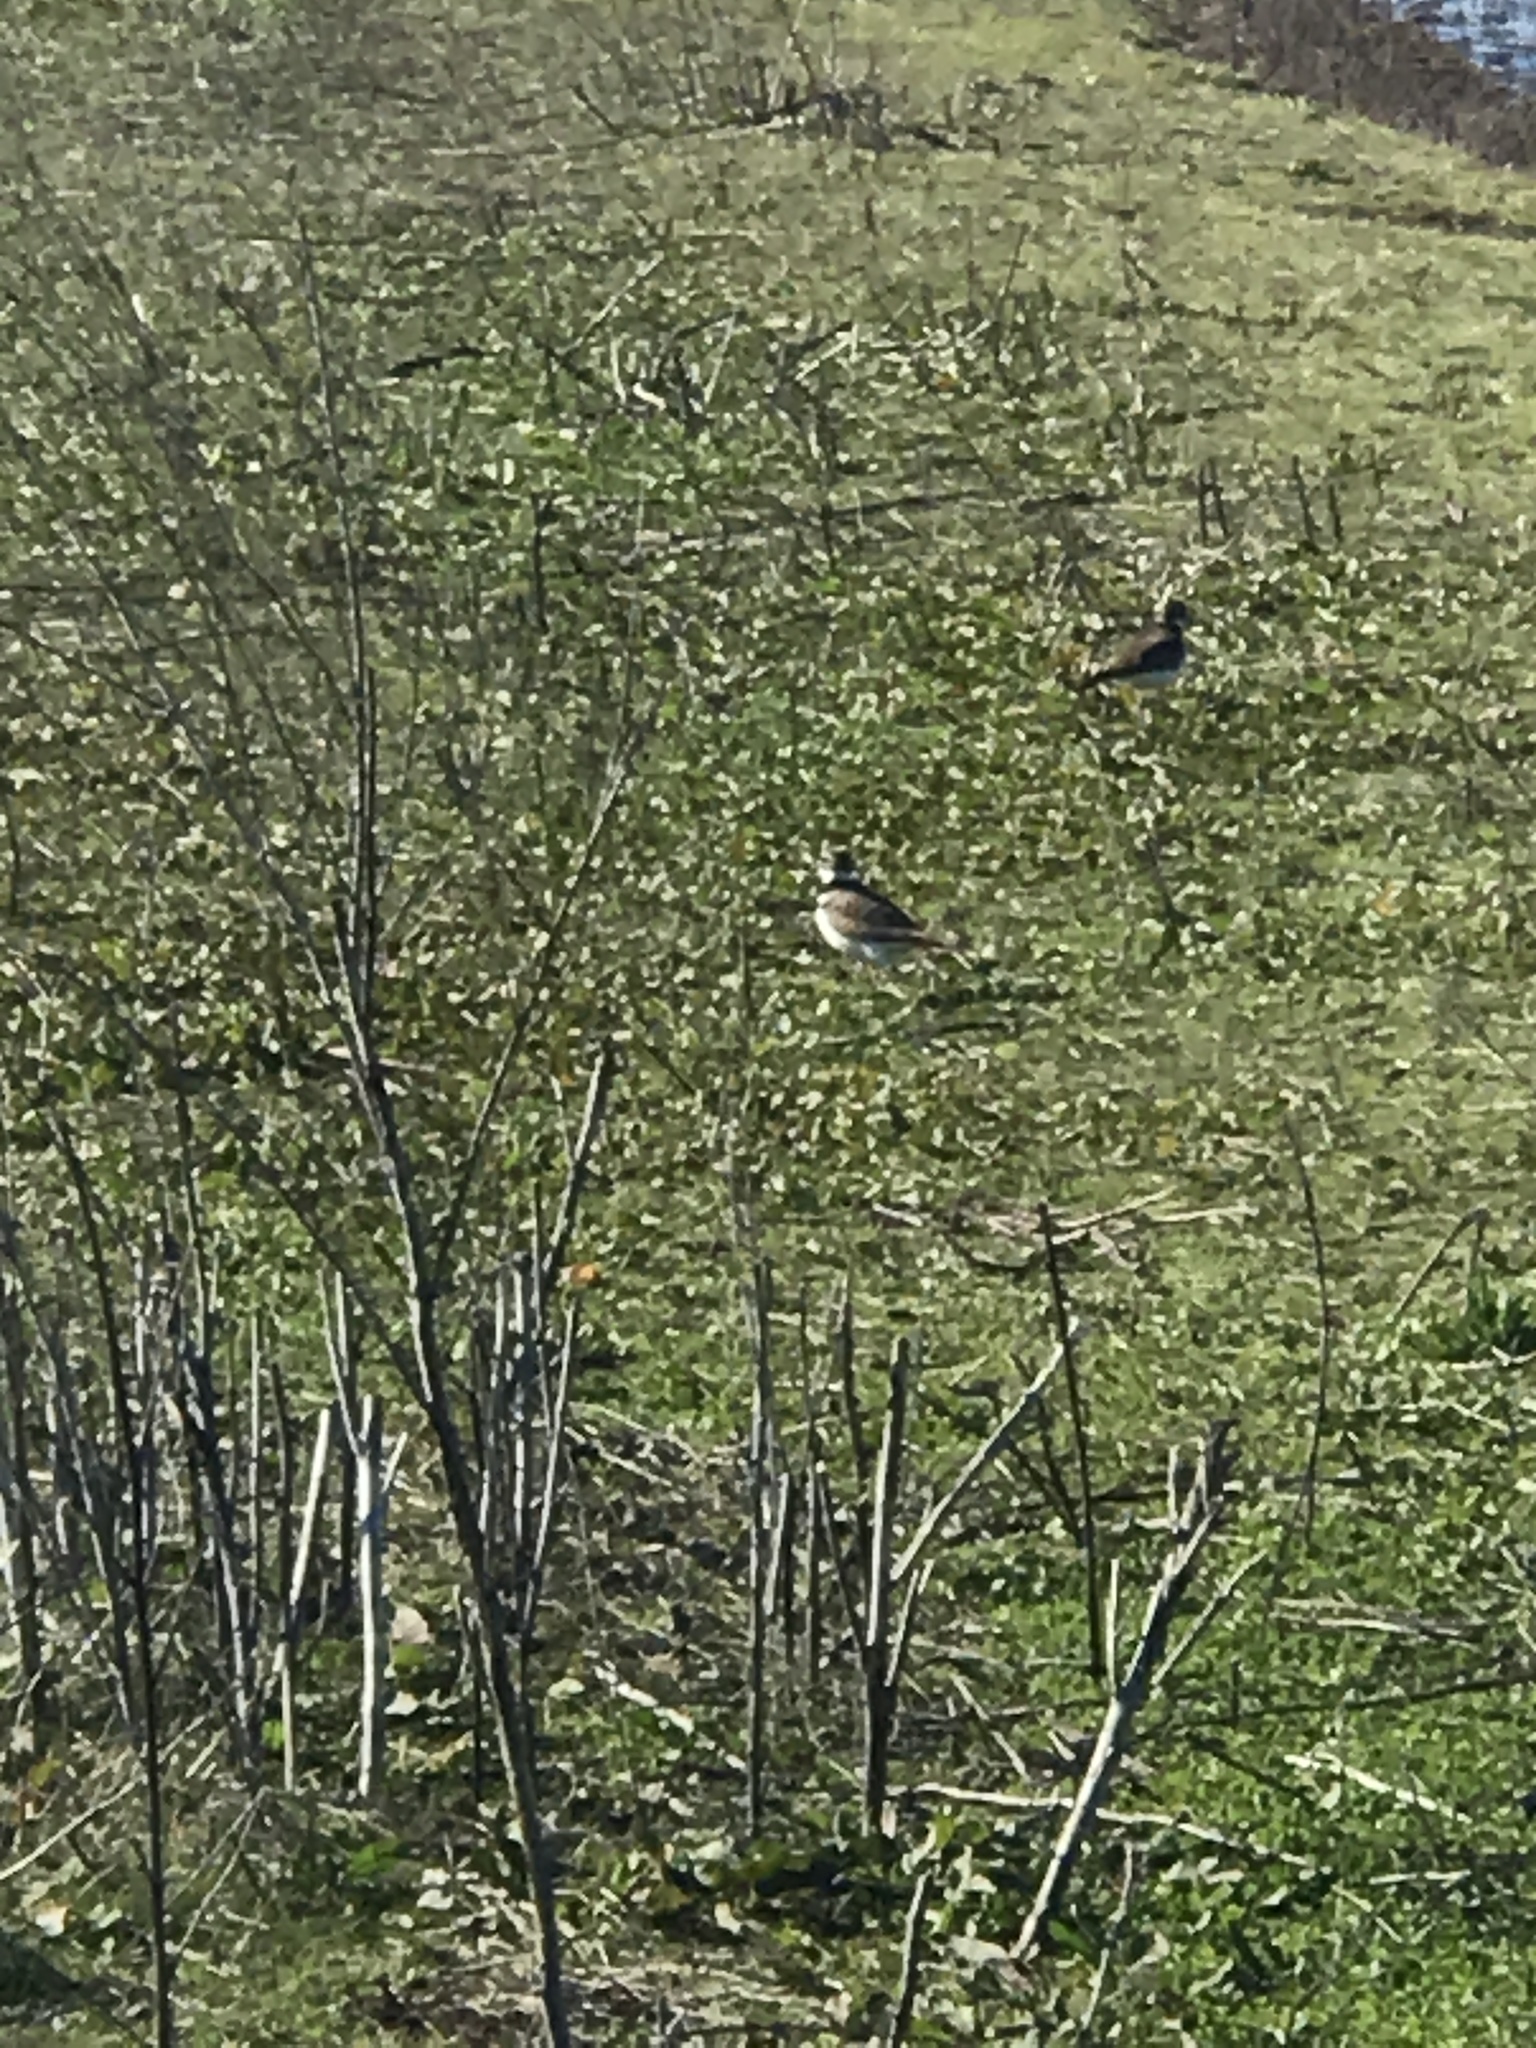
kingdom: Animalia
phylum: Chordata
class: Aves
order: Charadriiformes
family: Charadriidae
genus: Charadrius
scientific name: Charadrius vociferus
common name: Killdeer
